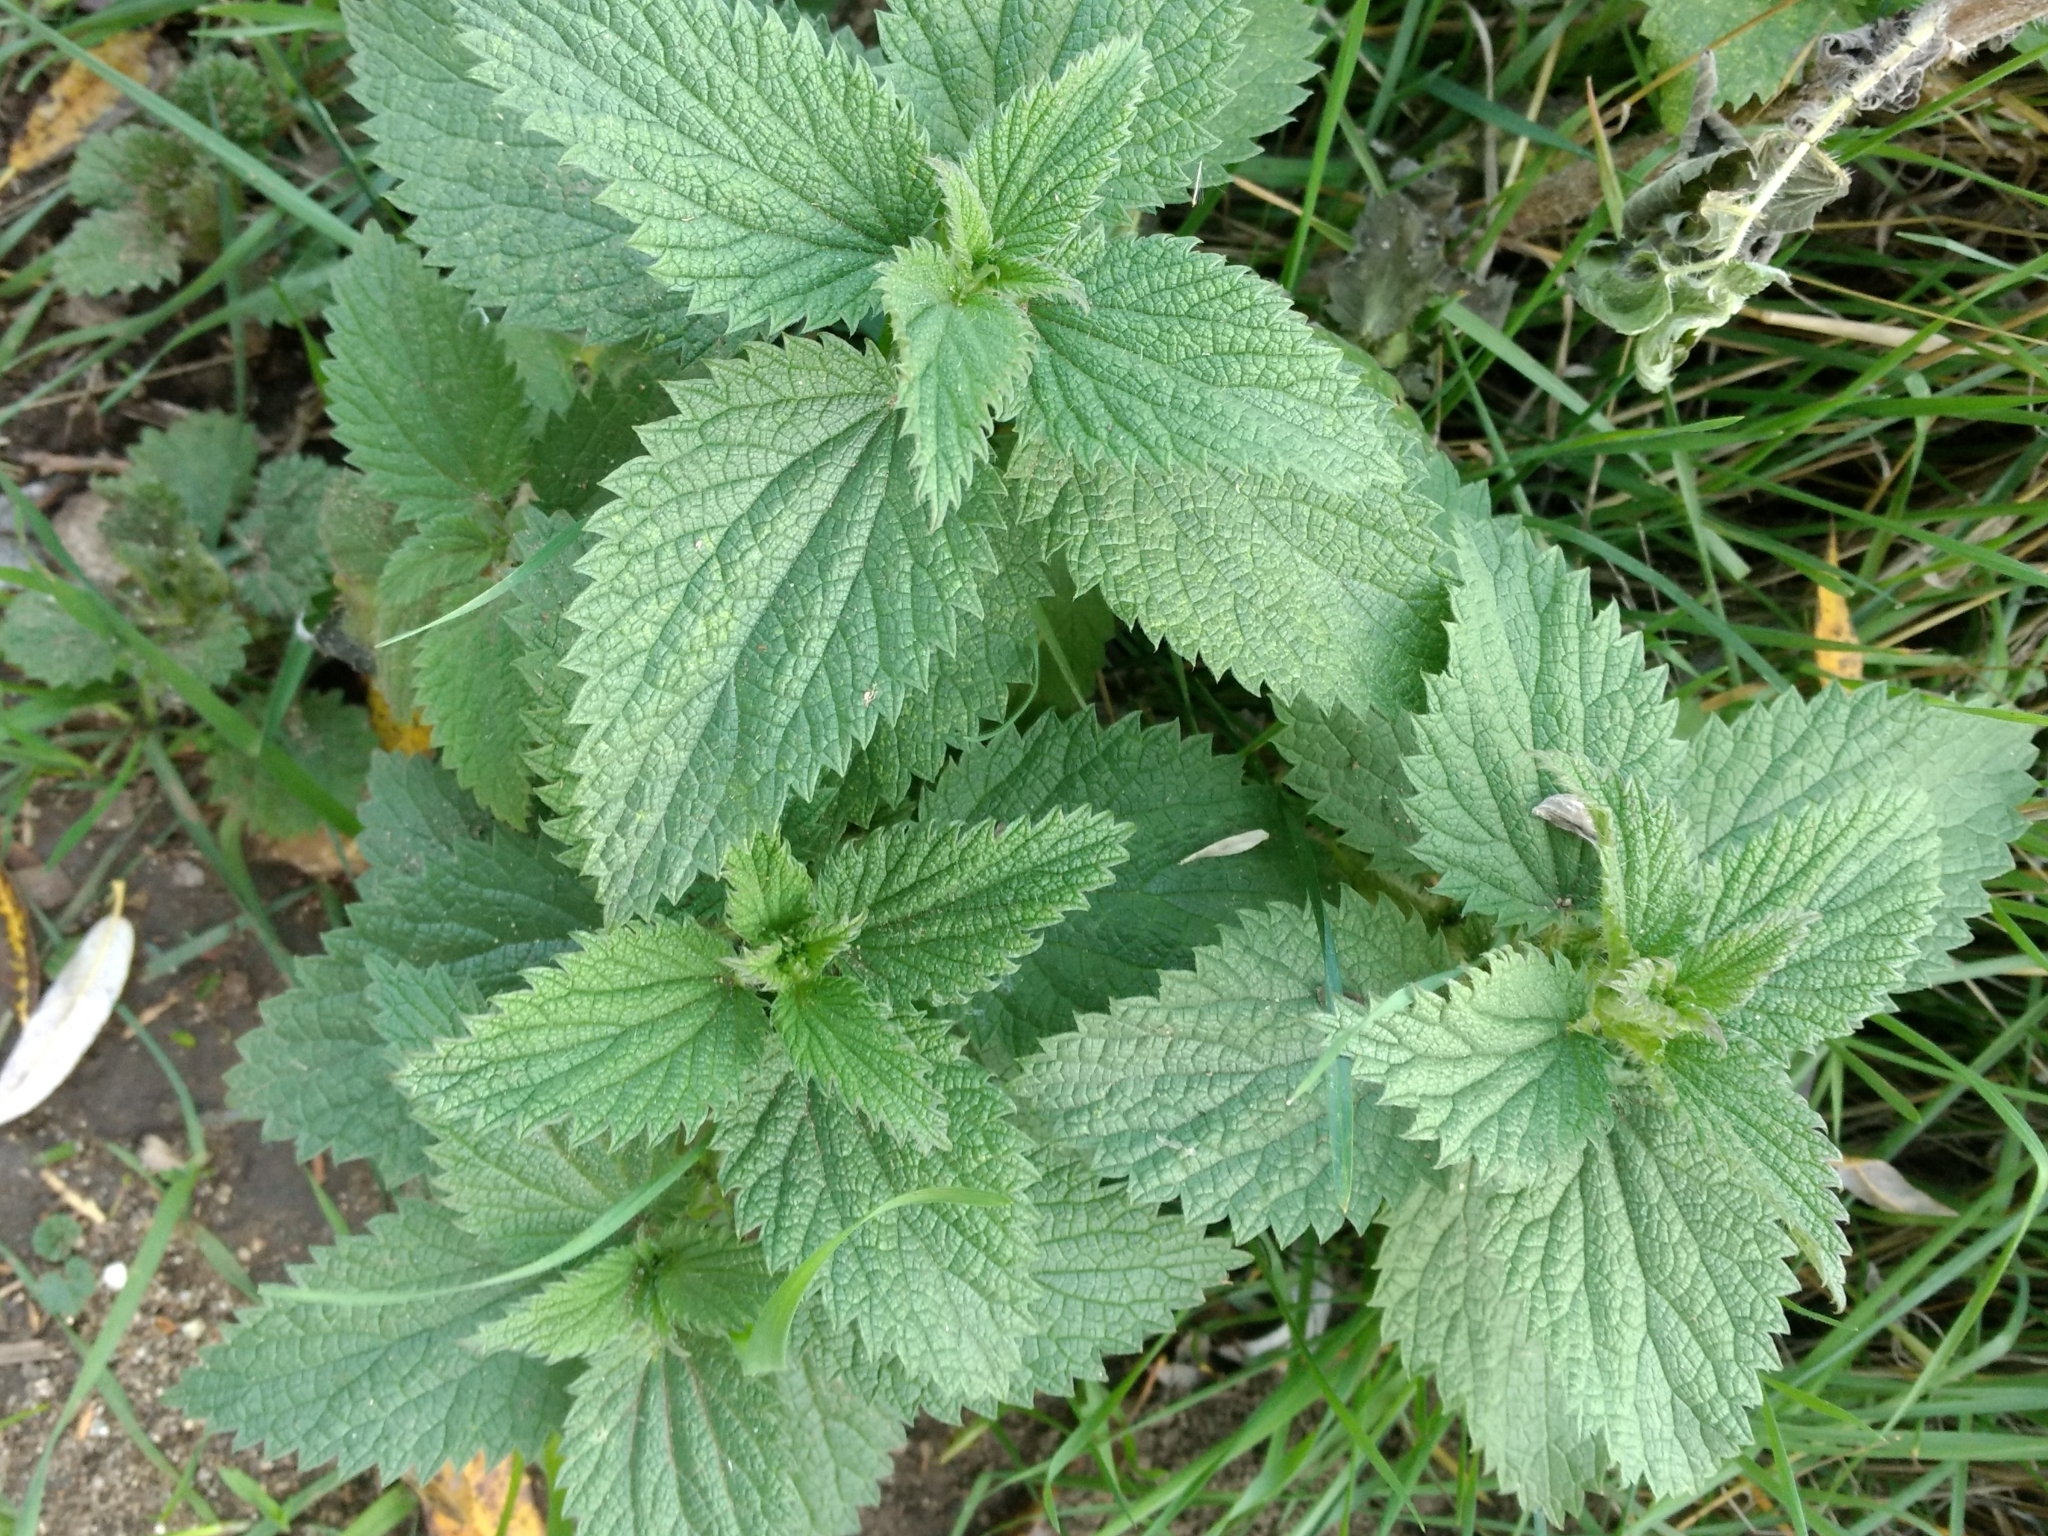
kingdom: Plantae
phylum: Tracheophyta
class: Magnoliopsida
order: Rosales
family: Urticaceae
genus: Urtica
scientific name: Urtica dioica
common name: Common nettle
